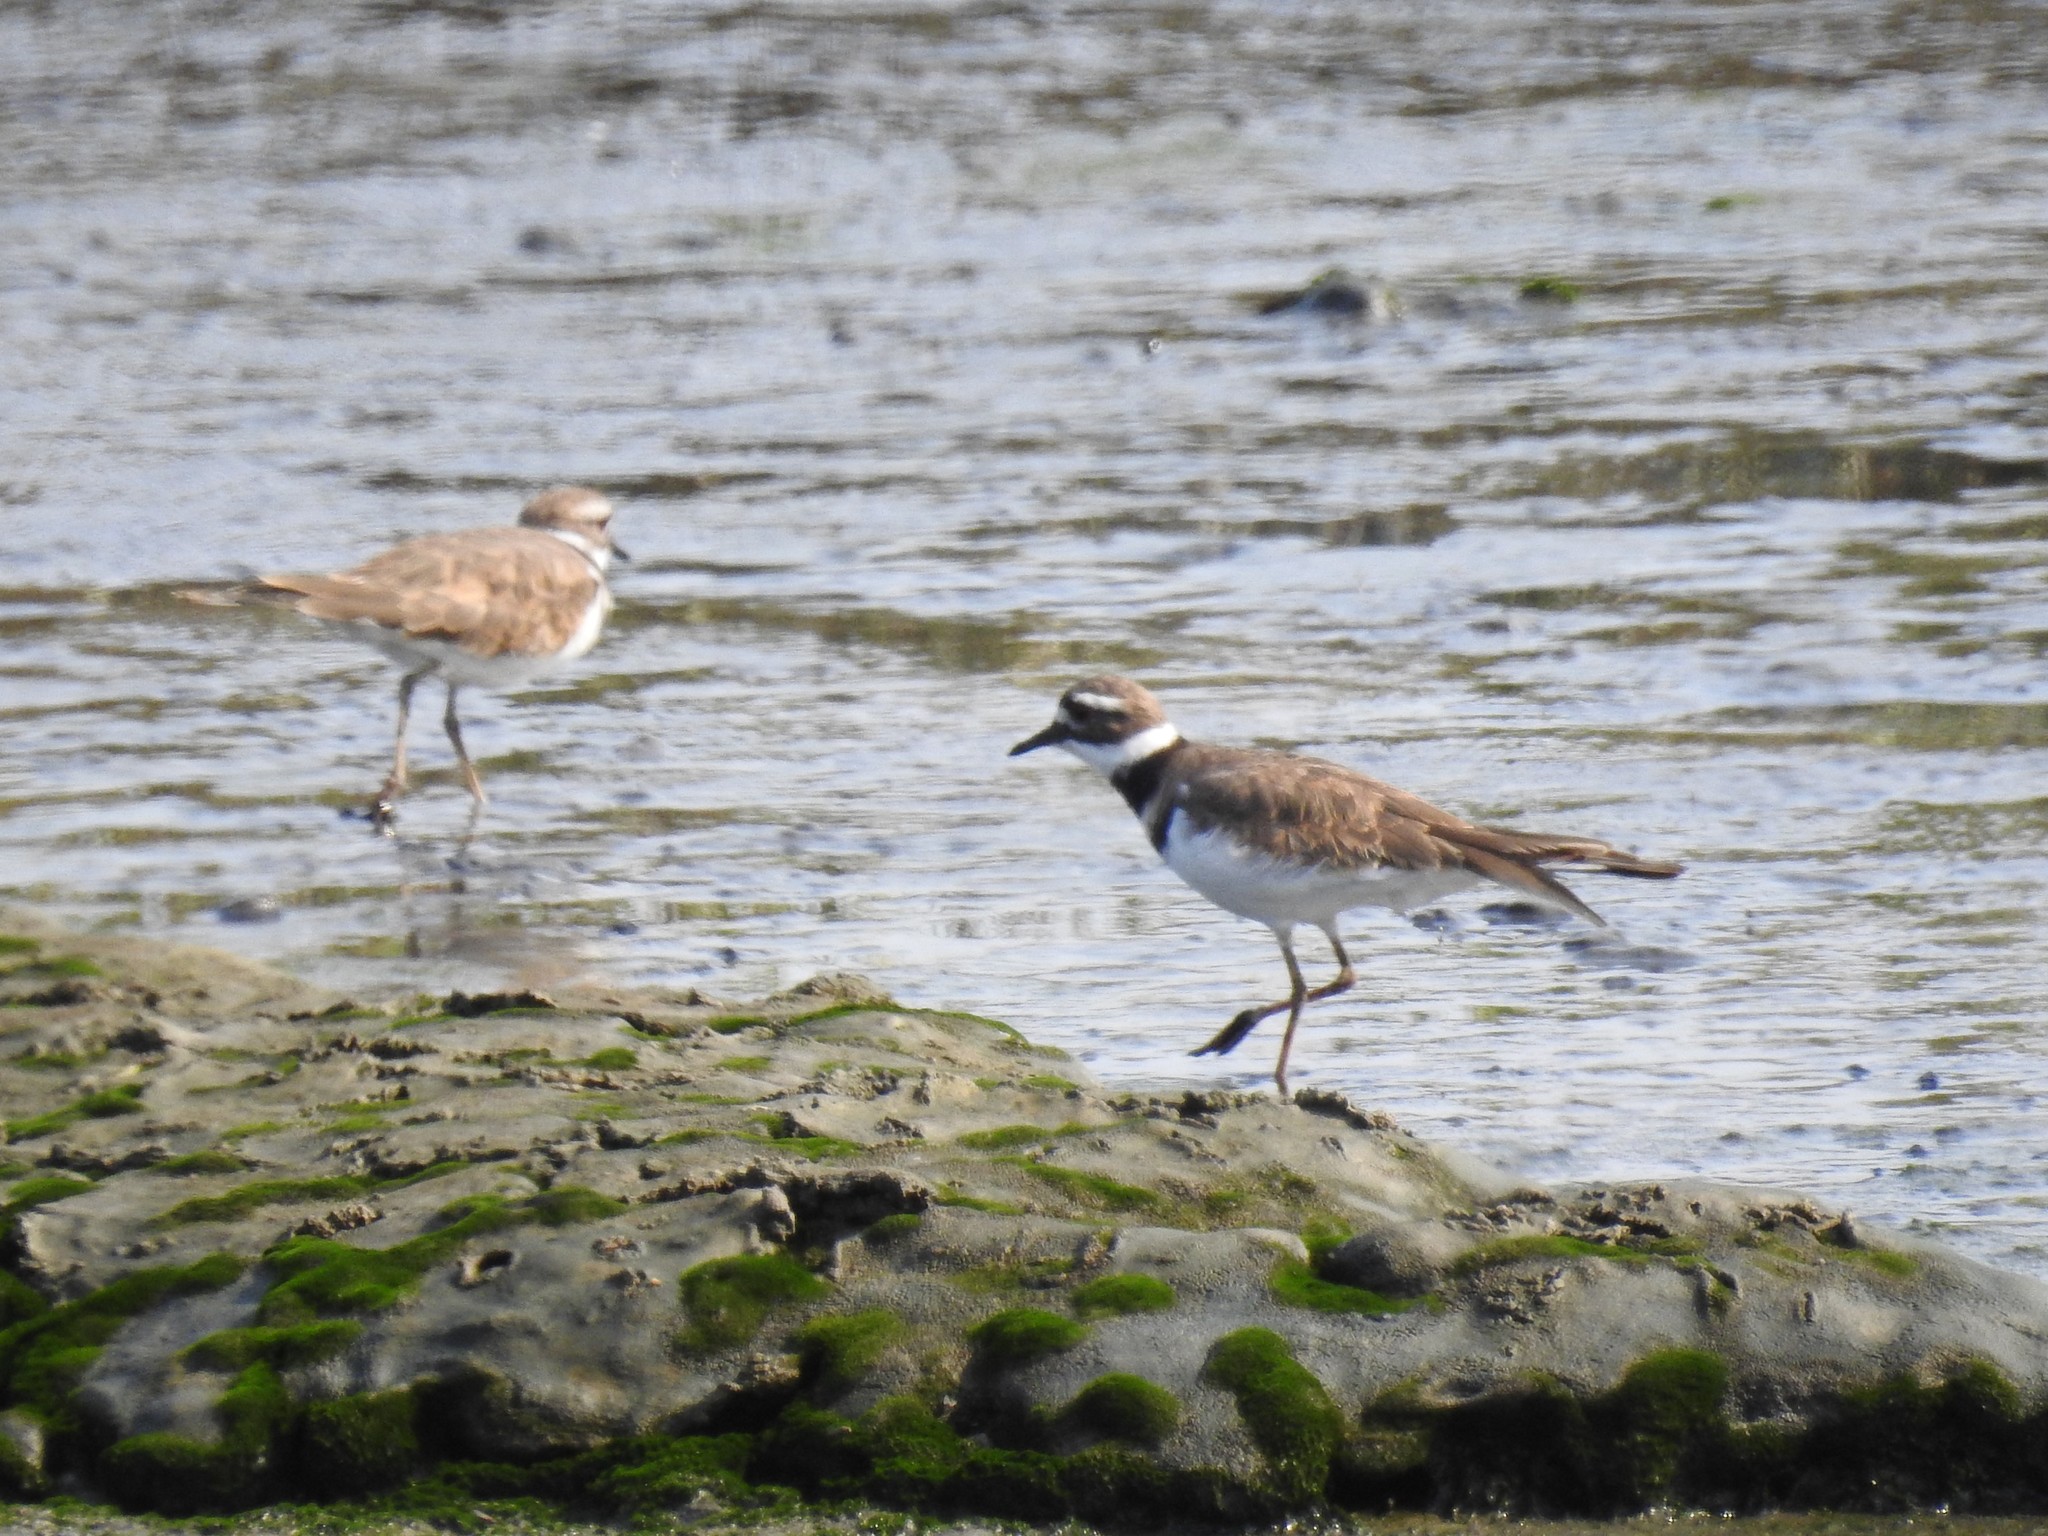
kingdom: Animalia
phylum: Chordata
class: Aves
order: Charadriiformes
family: Charadriidae
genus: Charadrius
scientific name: Charadrius vociferus
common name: Killdeer
